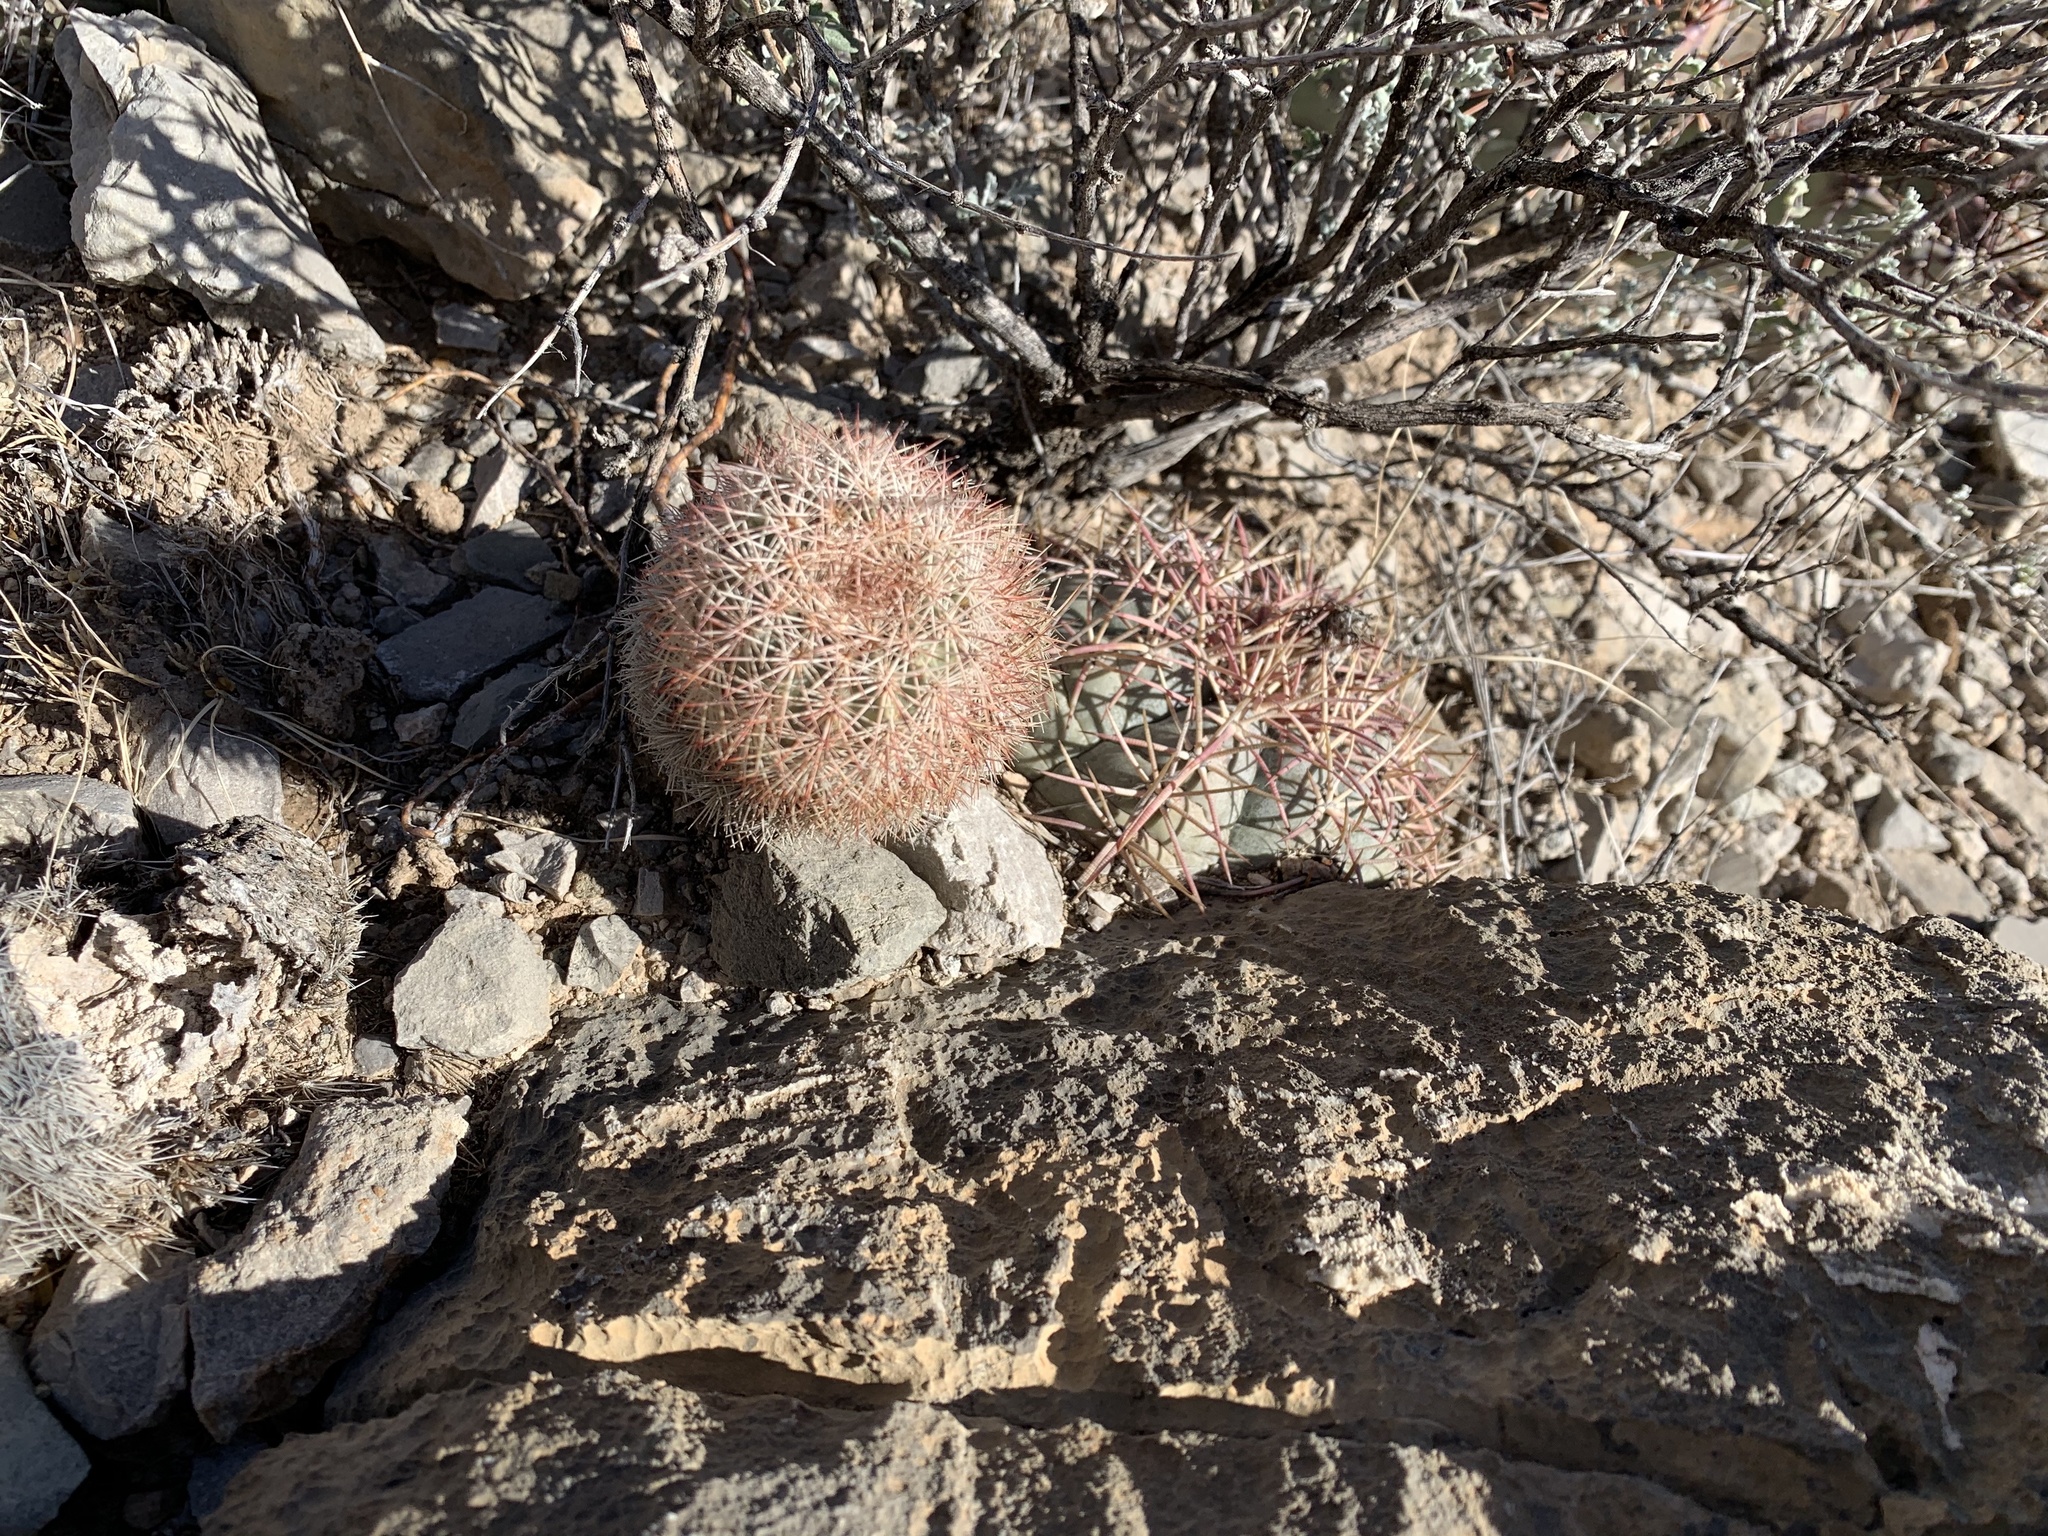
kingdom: Plantae
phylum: Tracheophyta
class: Magnoliopsida
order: Caryophyllales
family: Cactaceae
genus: Echinocereus
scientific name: Echinocereus dasyacanthus
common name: Spiny hedgehog cactus
